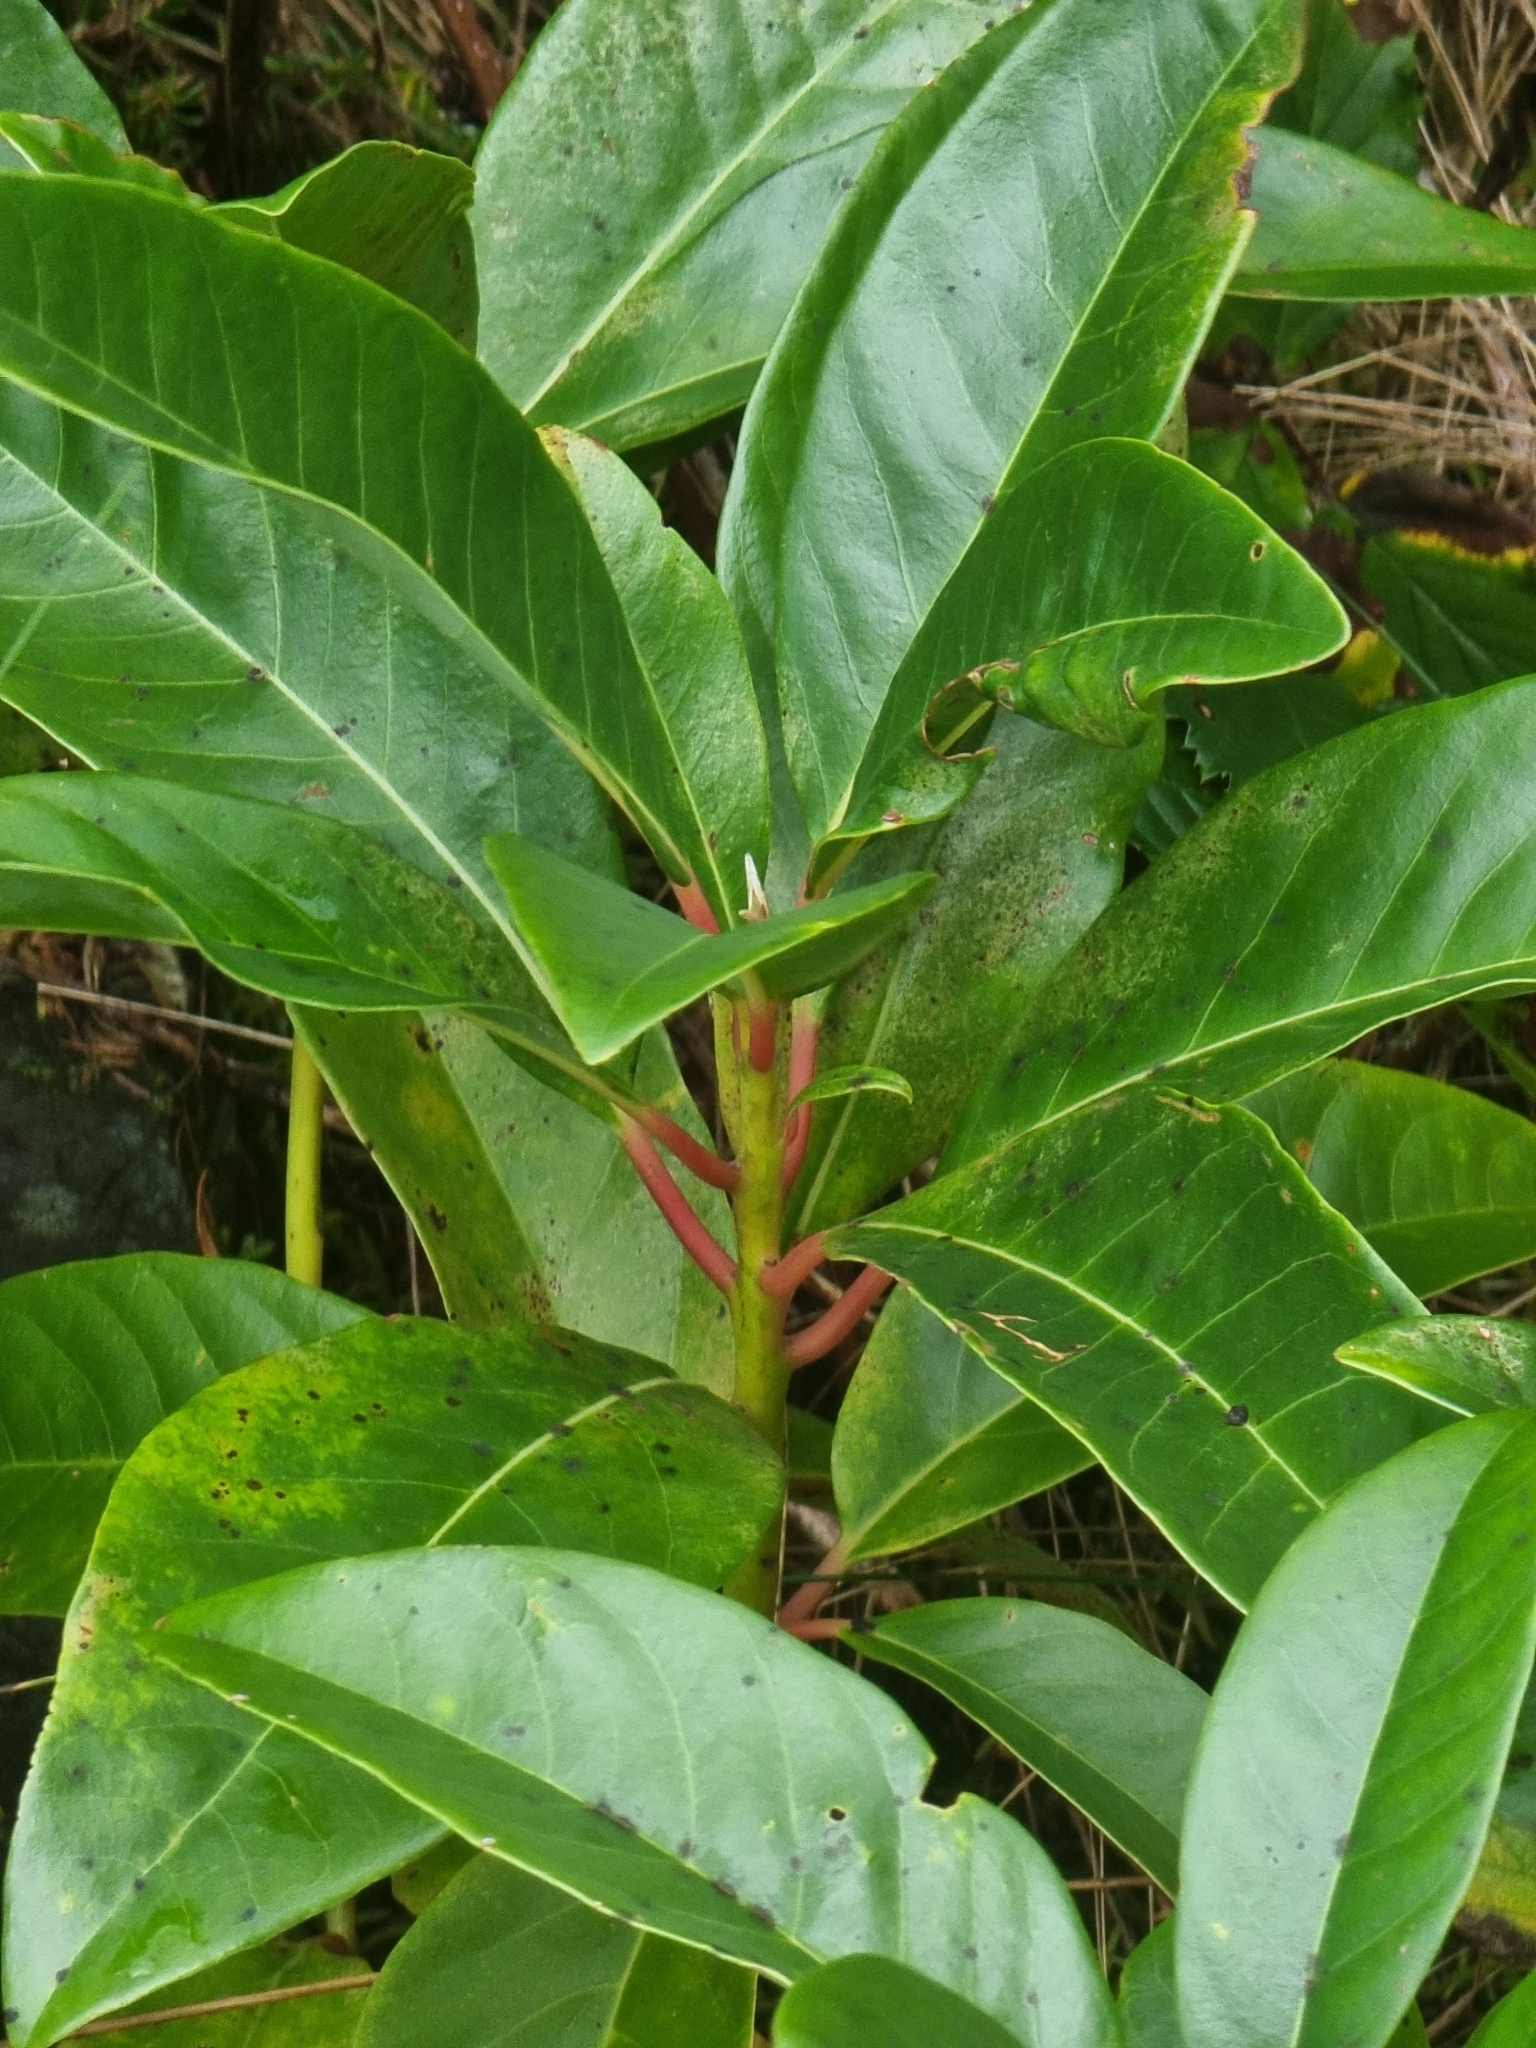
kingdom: Plantae
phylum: Tracheophyta
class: Magnoliopsida
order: Laurales
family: Lauraceae
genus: Persea
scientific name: Persea indica
